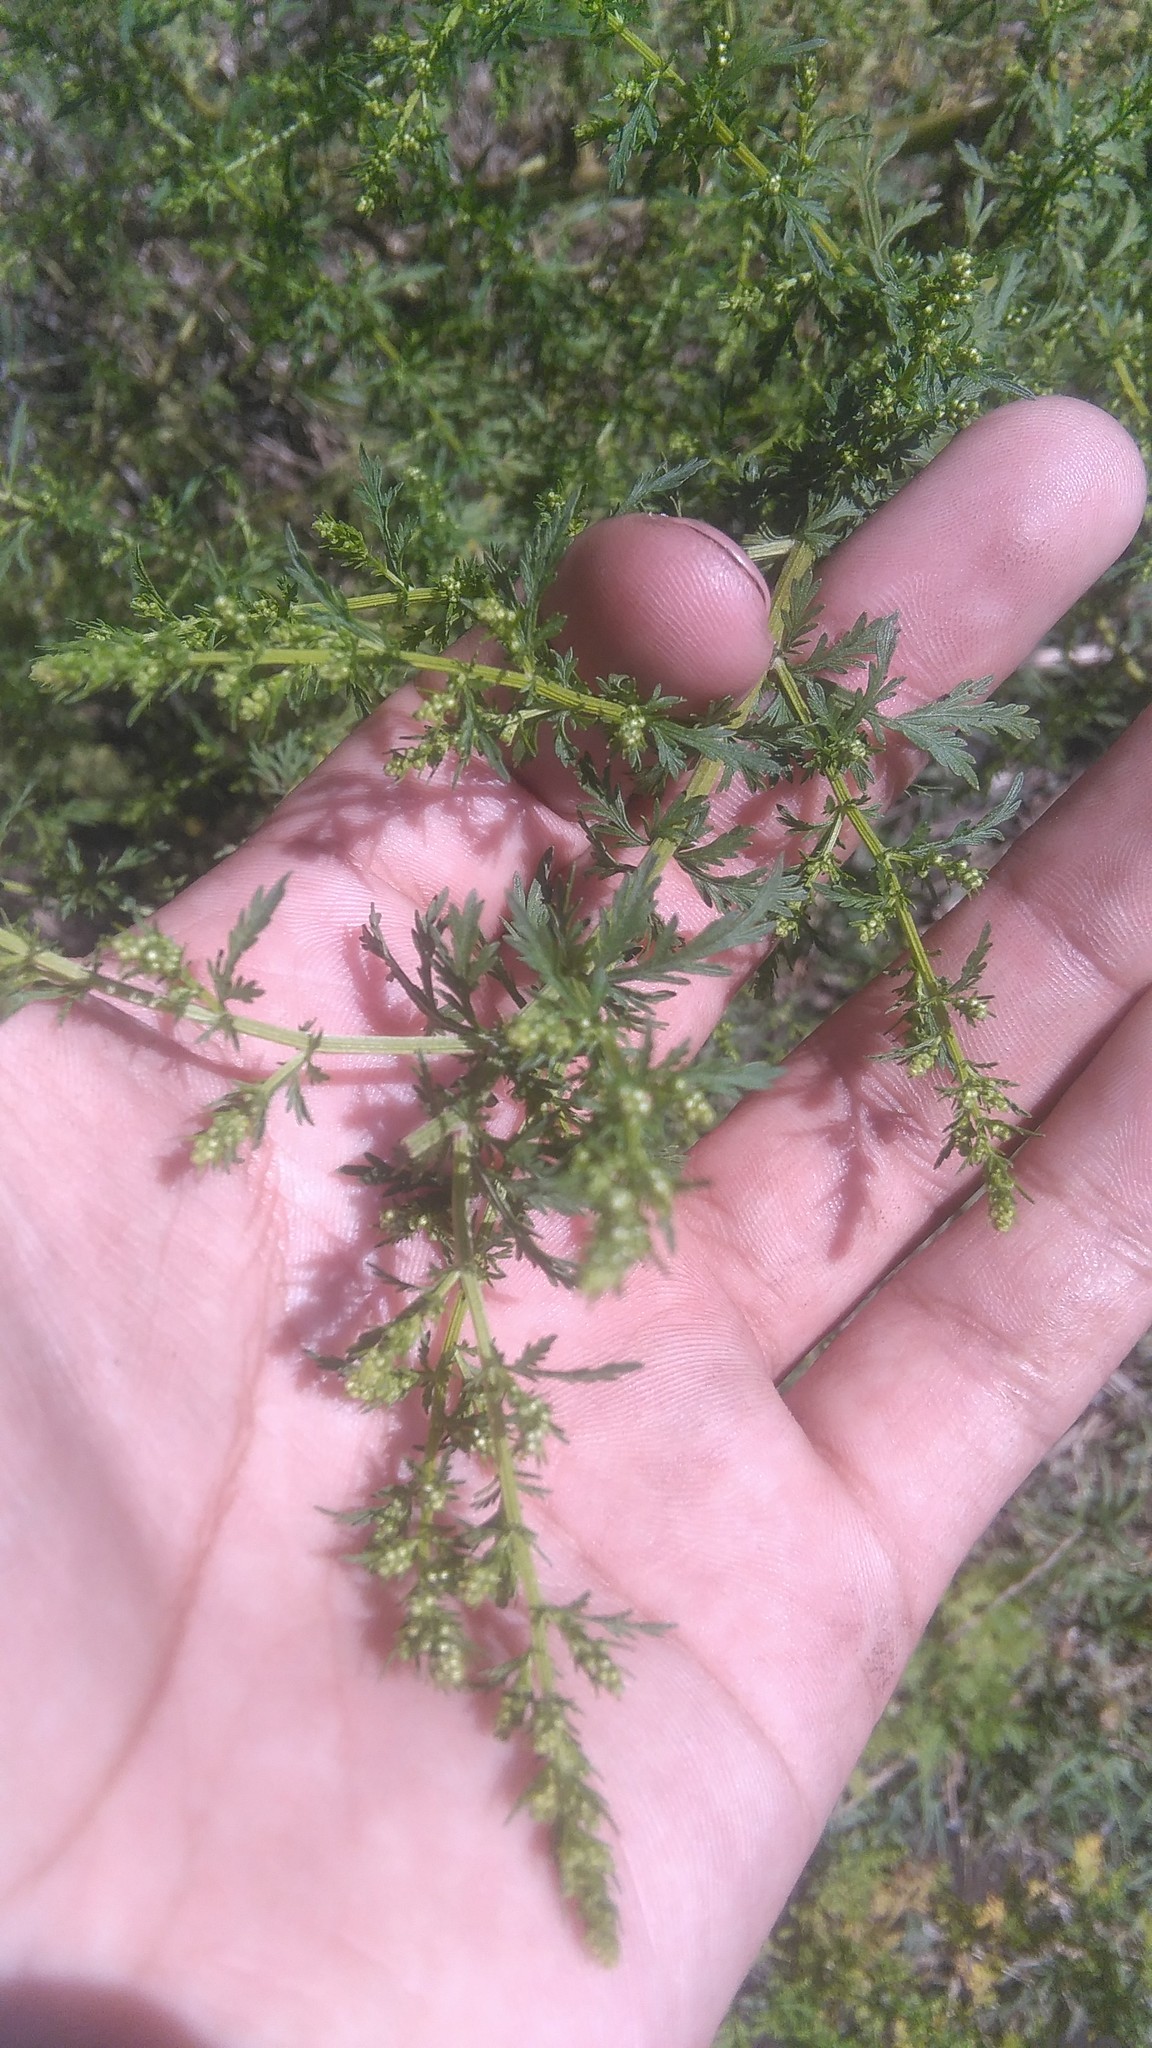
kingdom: Plantae
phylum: Tracheophyta
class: Magnoliopsida
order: Asterales
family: Asteraceae
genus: Artemisia
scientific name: Artemisia annua
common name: Sweet sagewort
